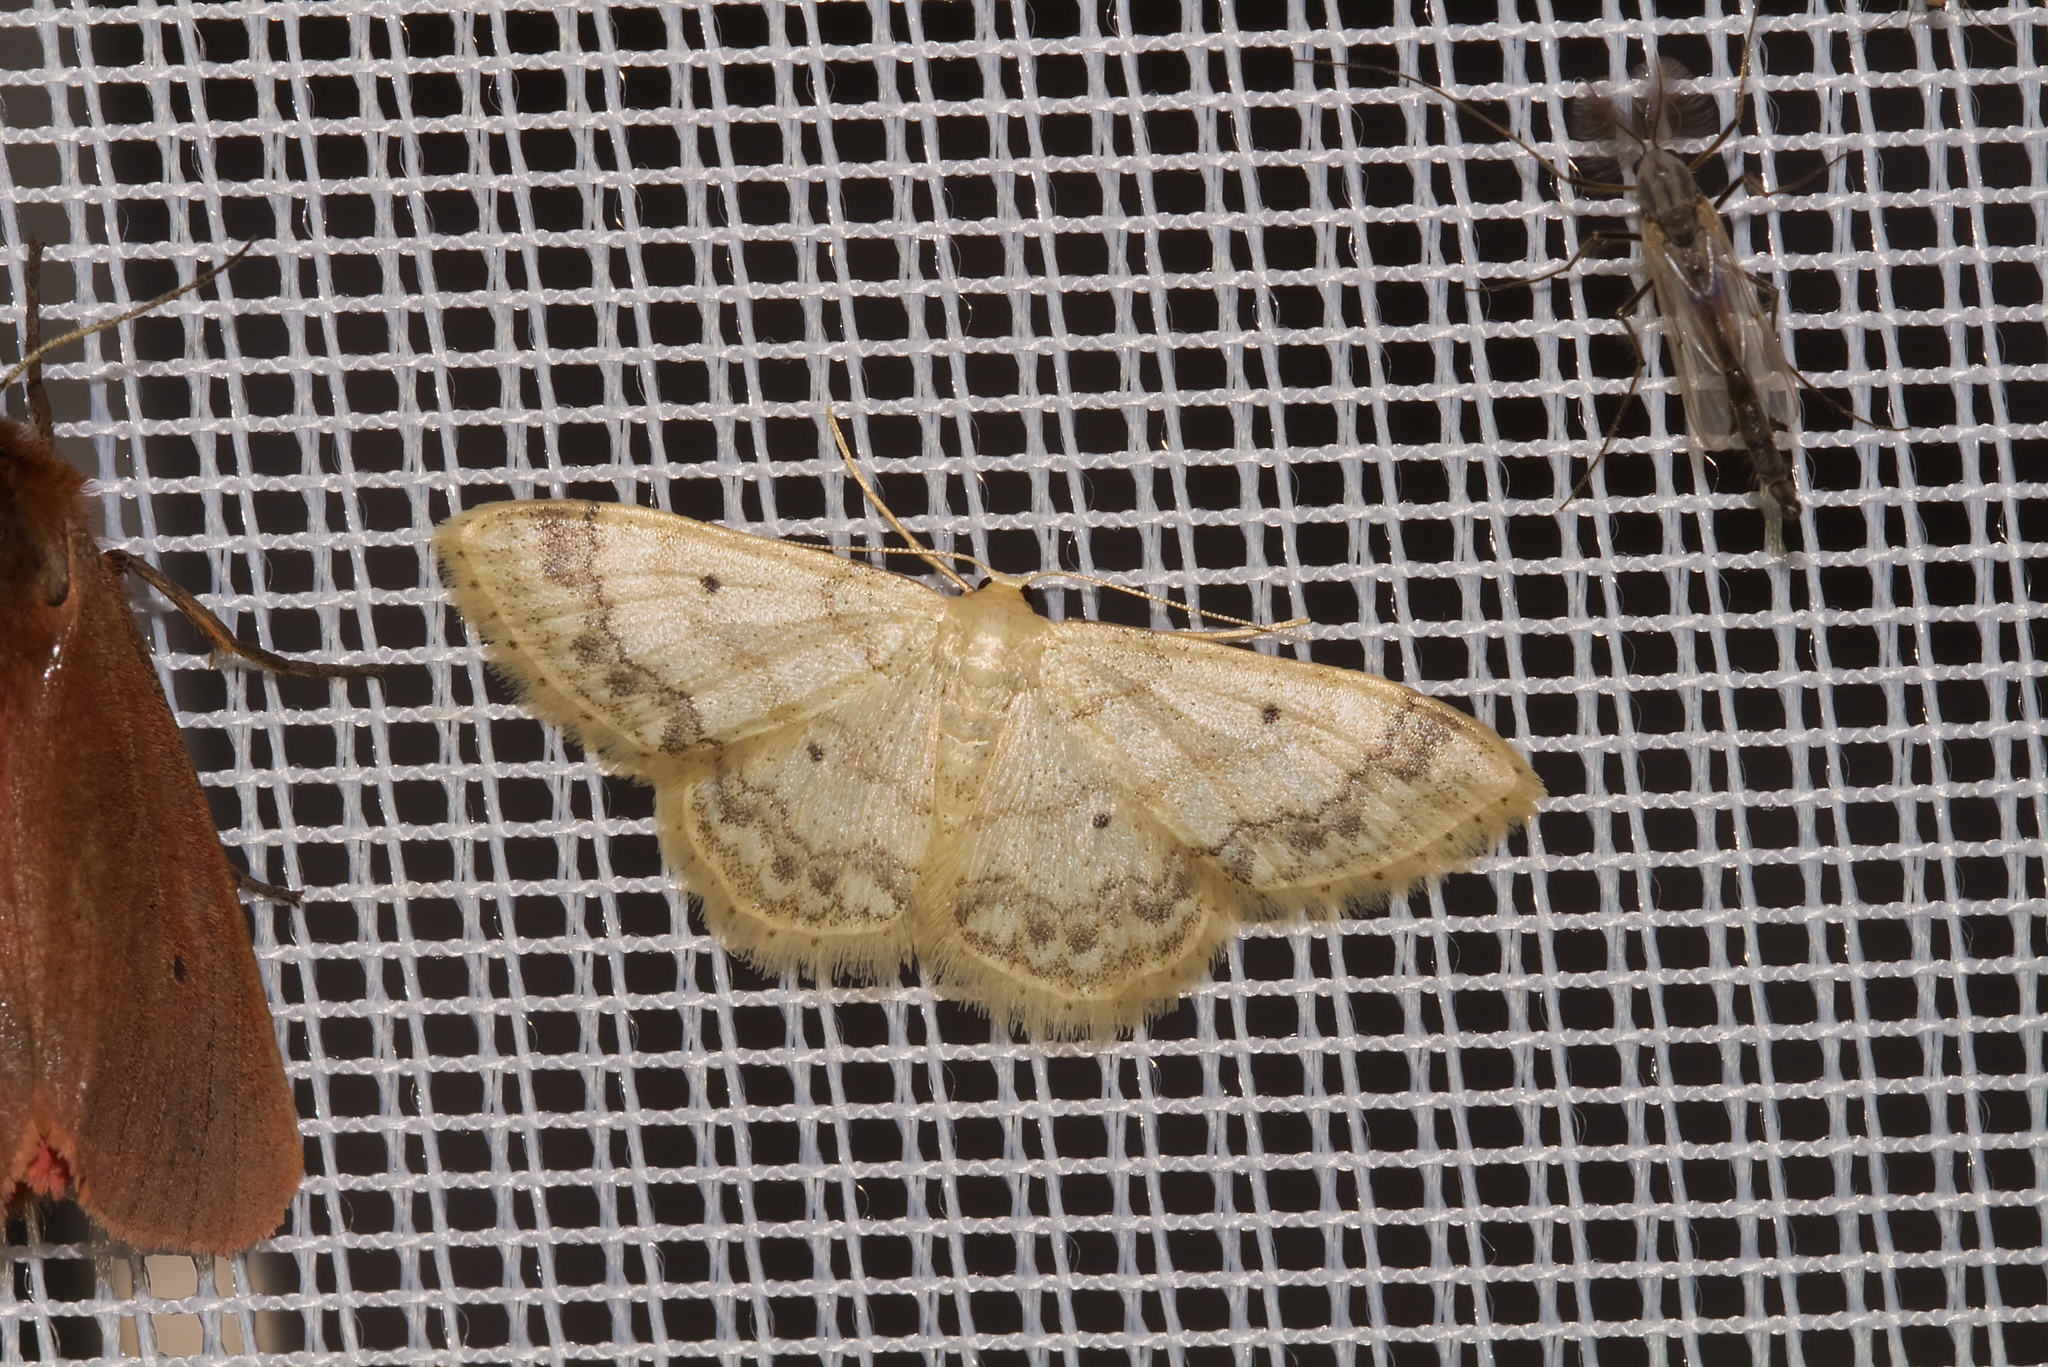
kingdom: Animalia
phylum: Arthropoda
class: Insecta
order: Lepidoptera
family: Geometridae
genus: Idaea
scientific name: Idaea biselata
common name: Small fan-footed wave
